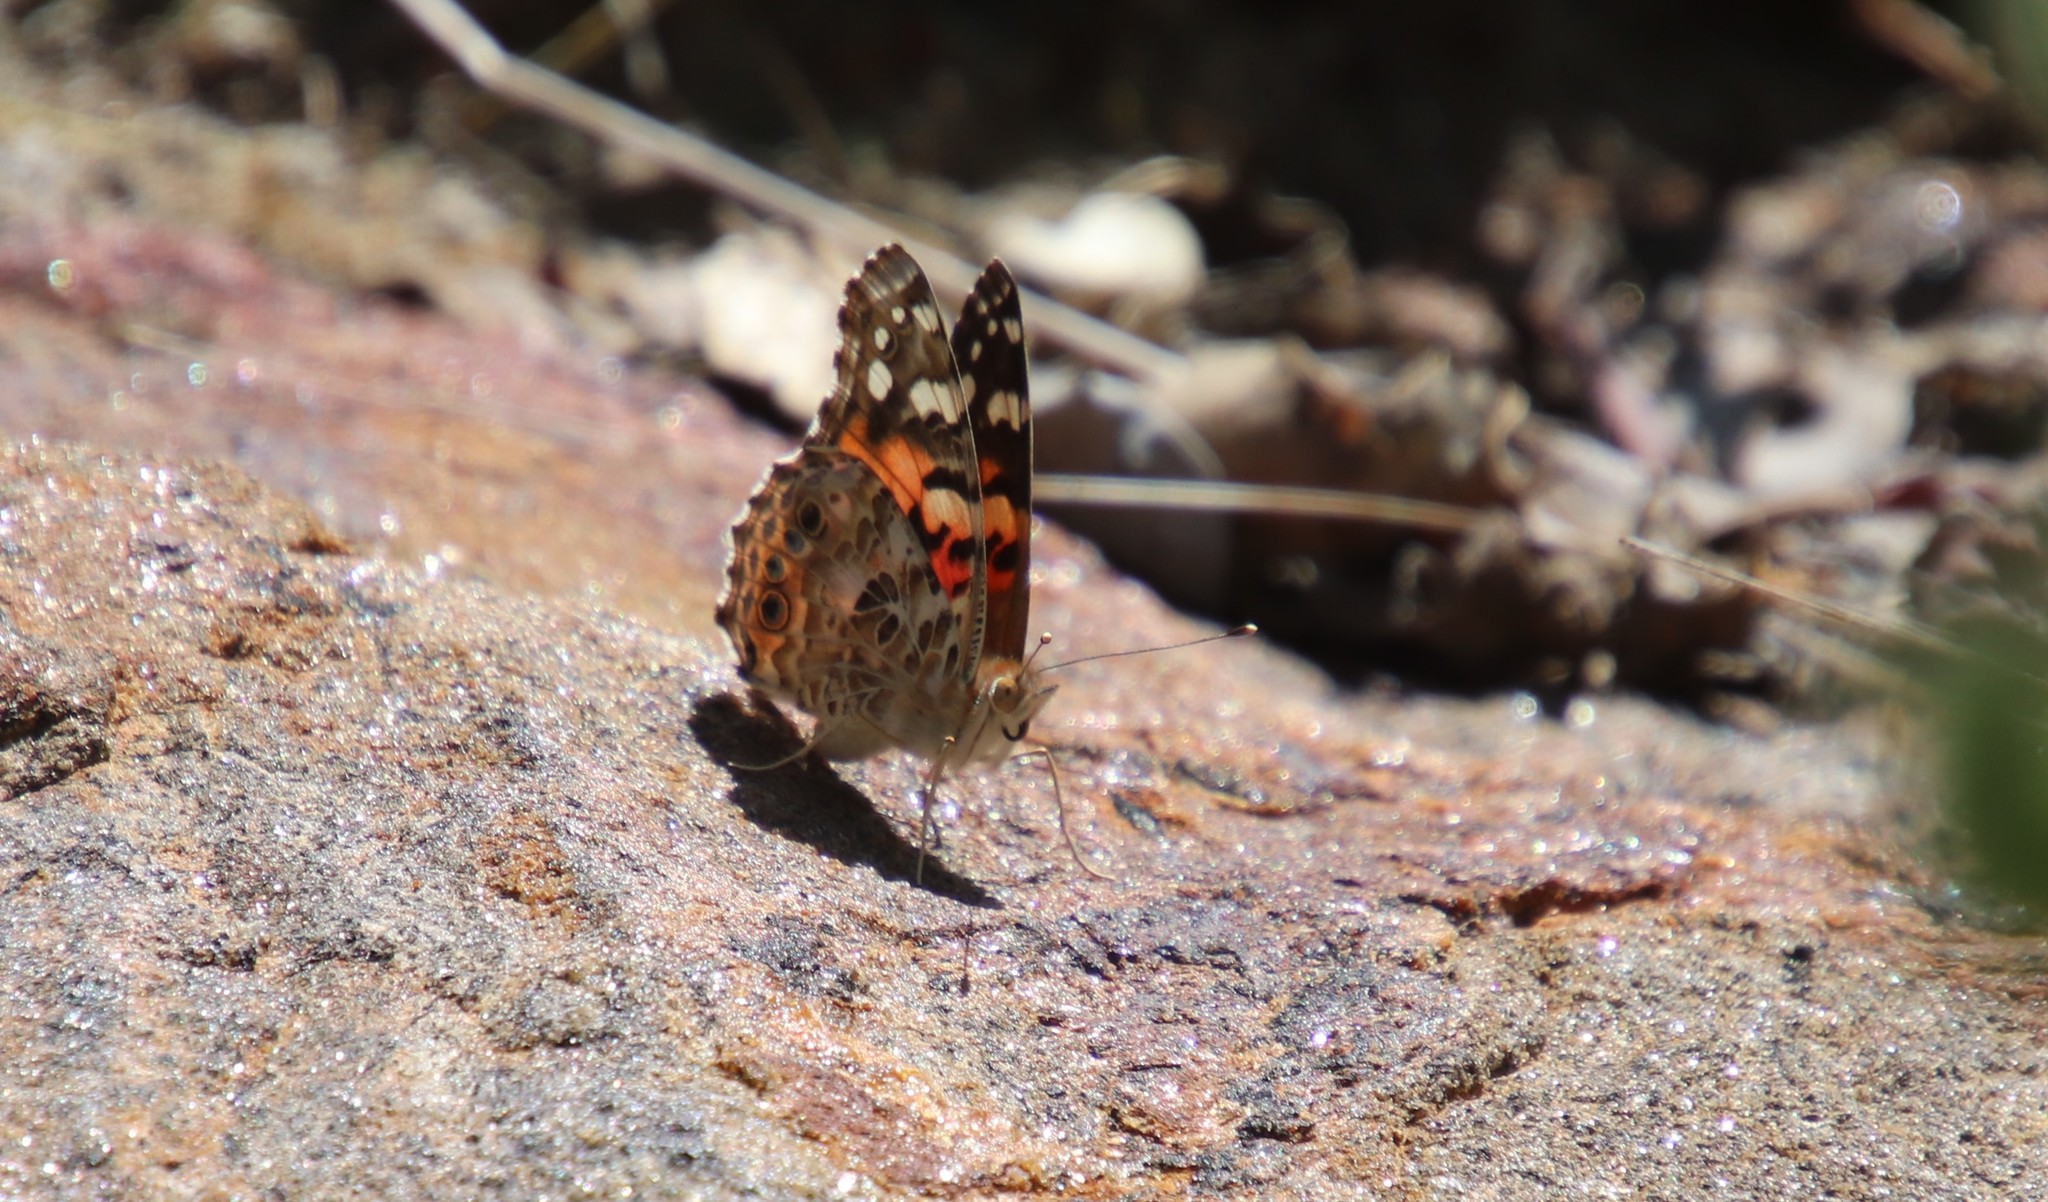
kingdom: Animalia
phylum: Arthropoda
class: Insecta
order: Lepidoptera
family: Nymphalidae
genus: Vanessa
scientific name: Vanessa cardui
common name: Painted lady
